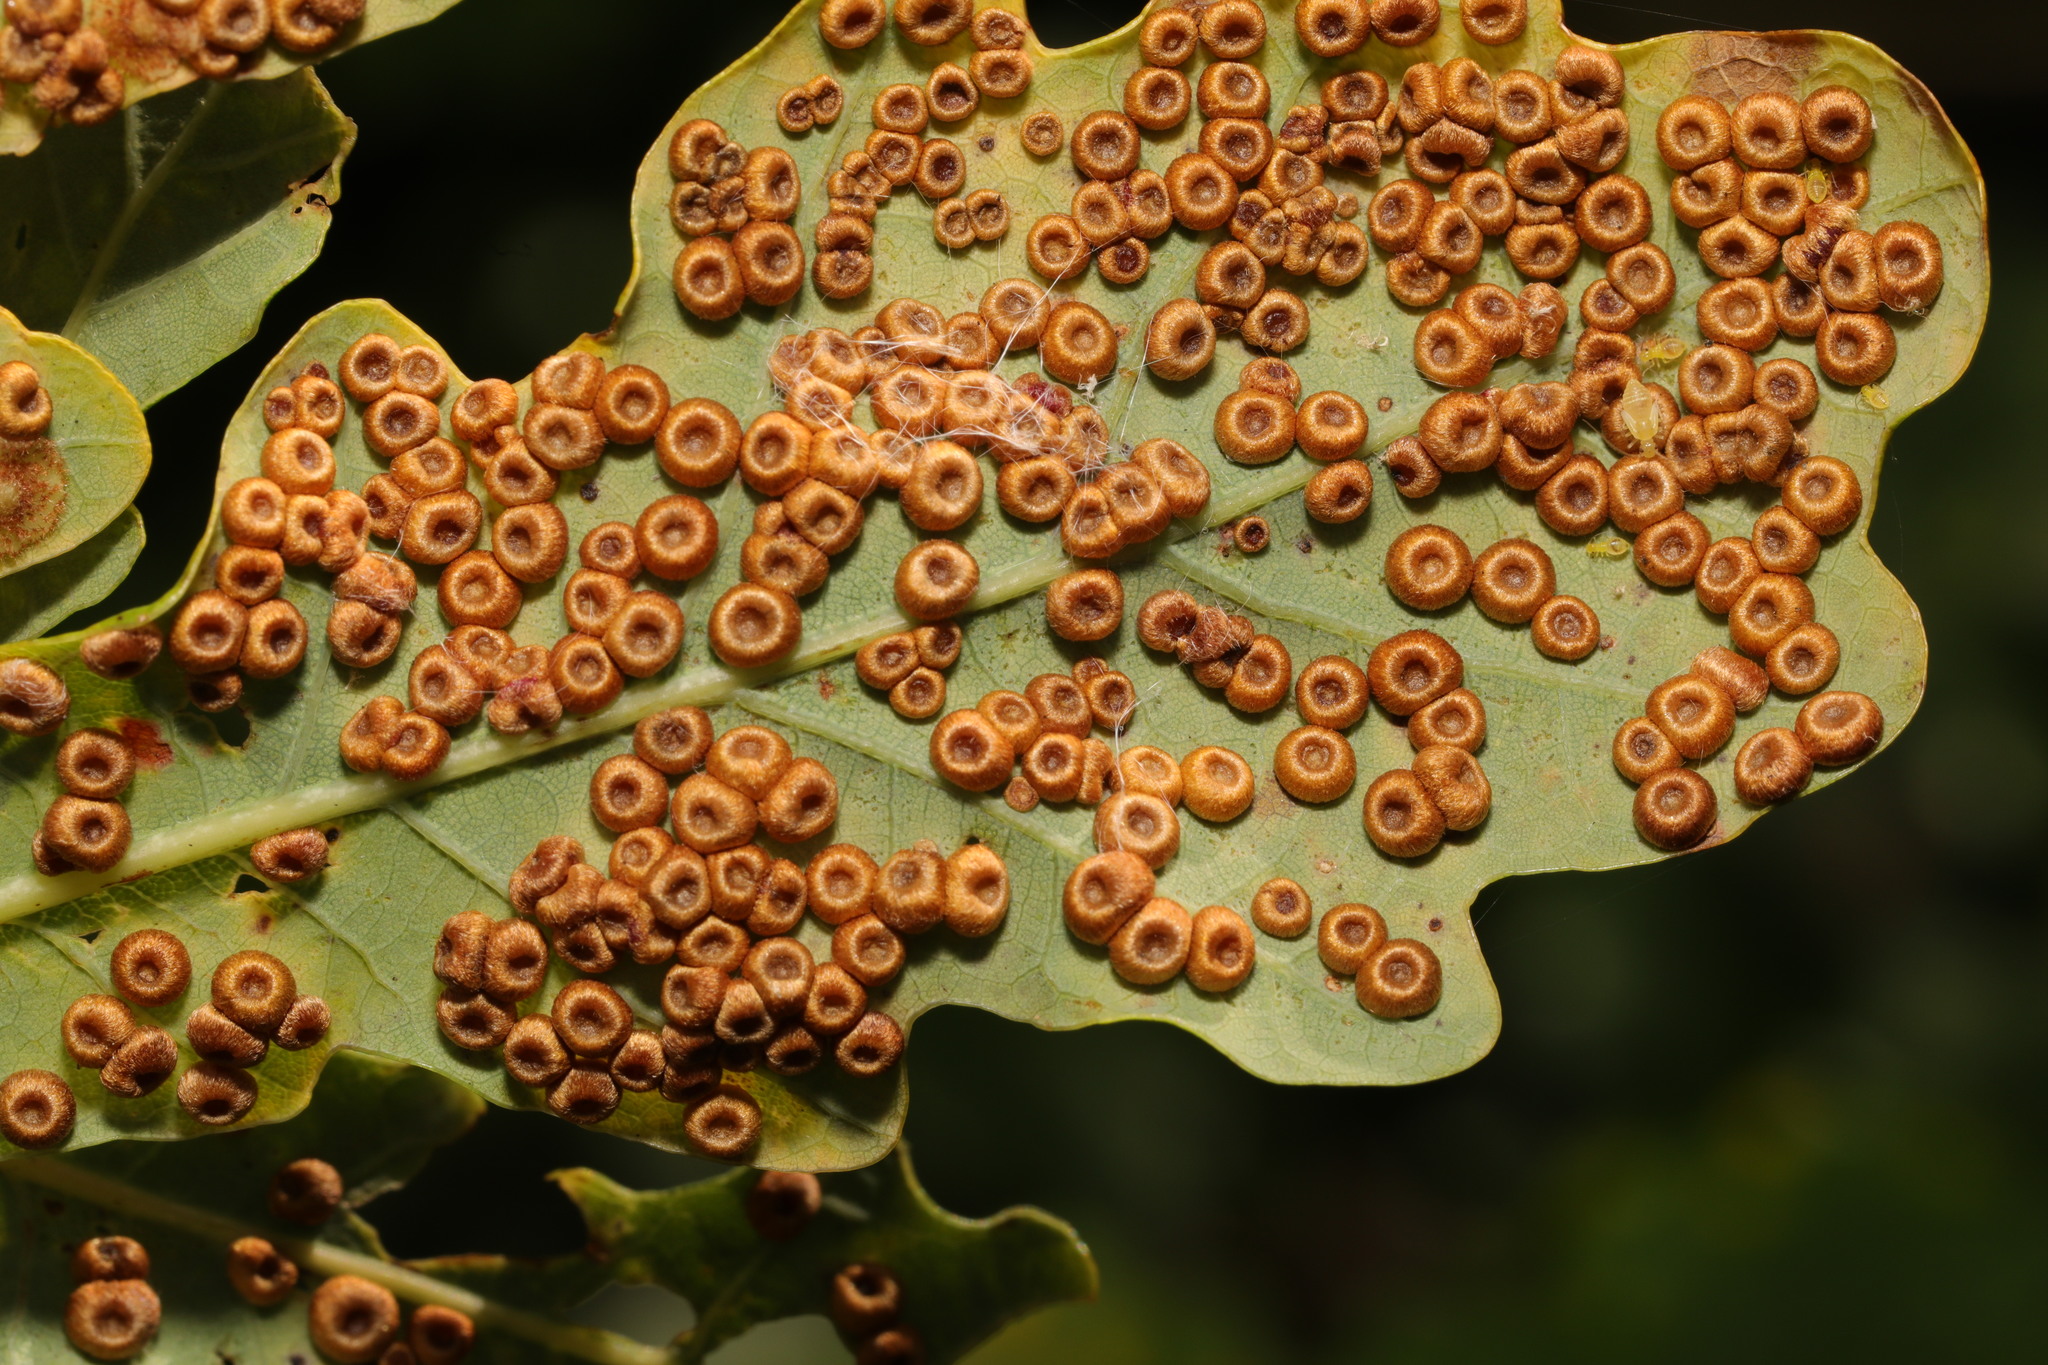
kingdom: Animalia
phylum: Arthropoda
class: Insecta
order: Hymenoptera
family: Cynipidae
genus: Neuroterus
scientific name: Neuroterus numismalis
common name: Silk-button spangle gall
